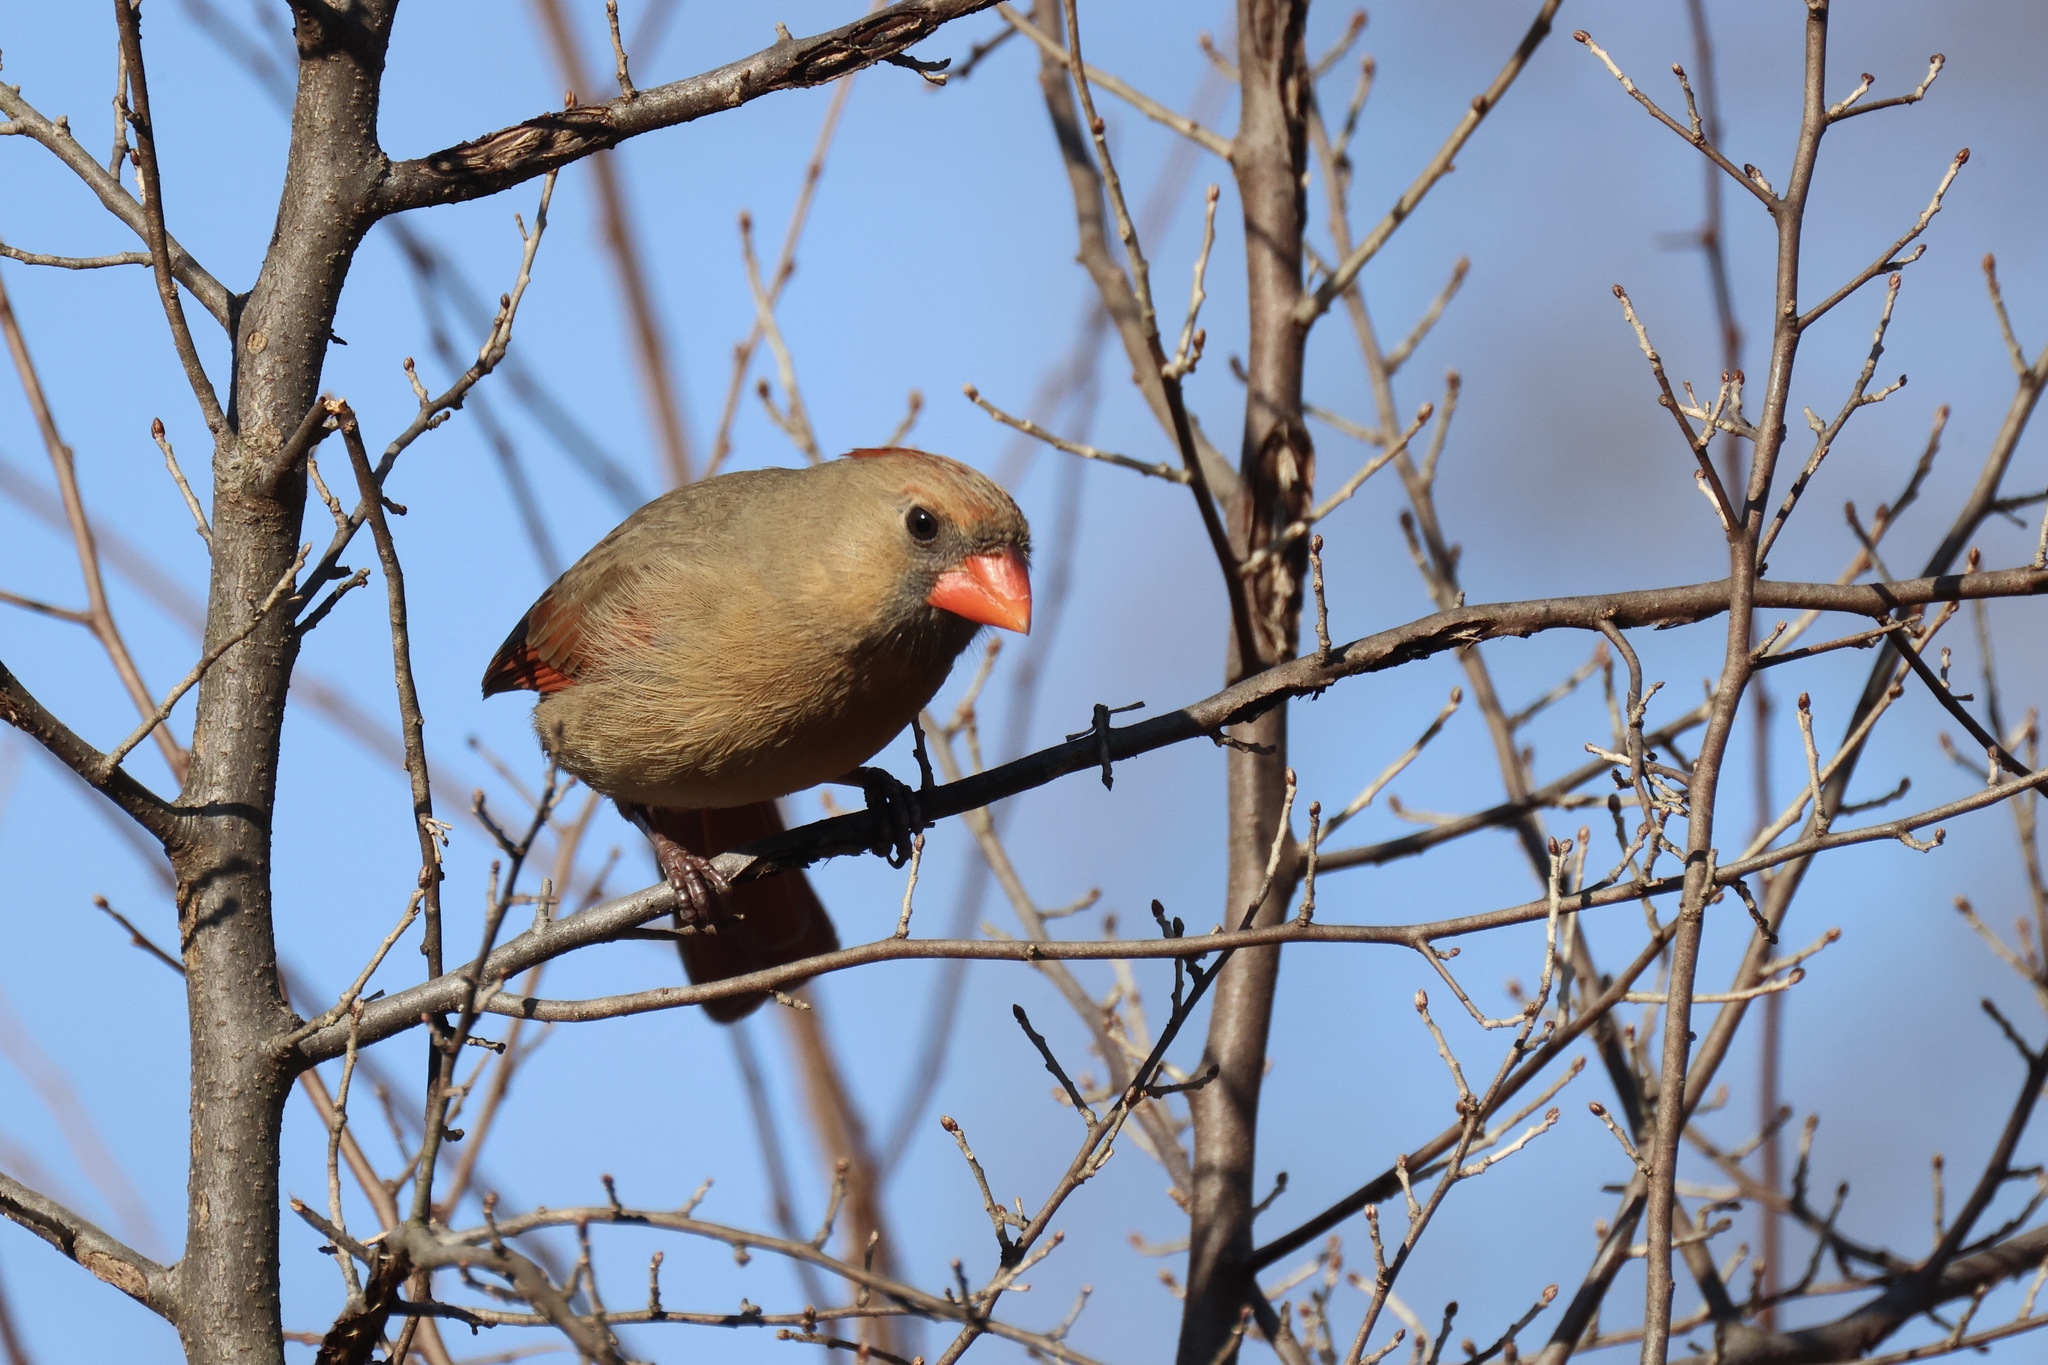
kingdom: Animalia
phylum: Chordata
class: Aves
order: Passeriformes
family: Cardinalidae
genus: Cardinalis
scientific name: Cardinalis cardinalis
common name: Northern cardinal
